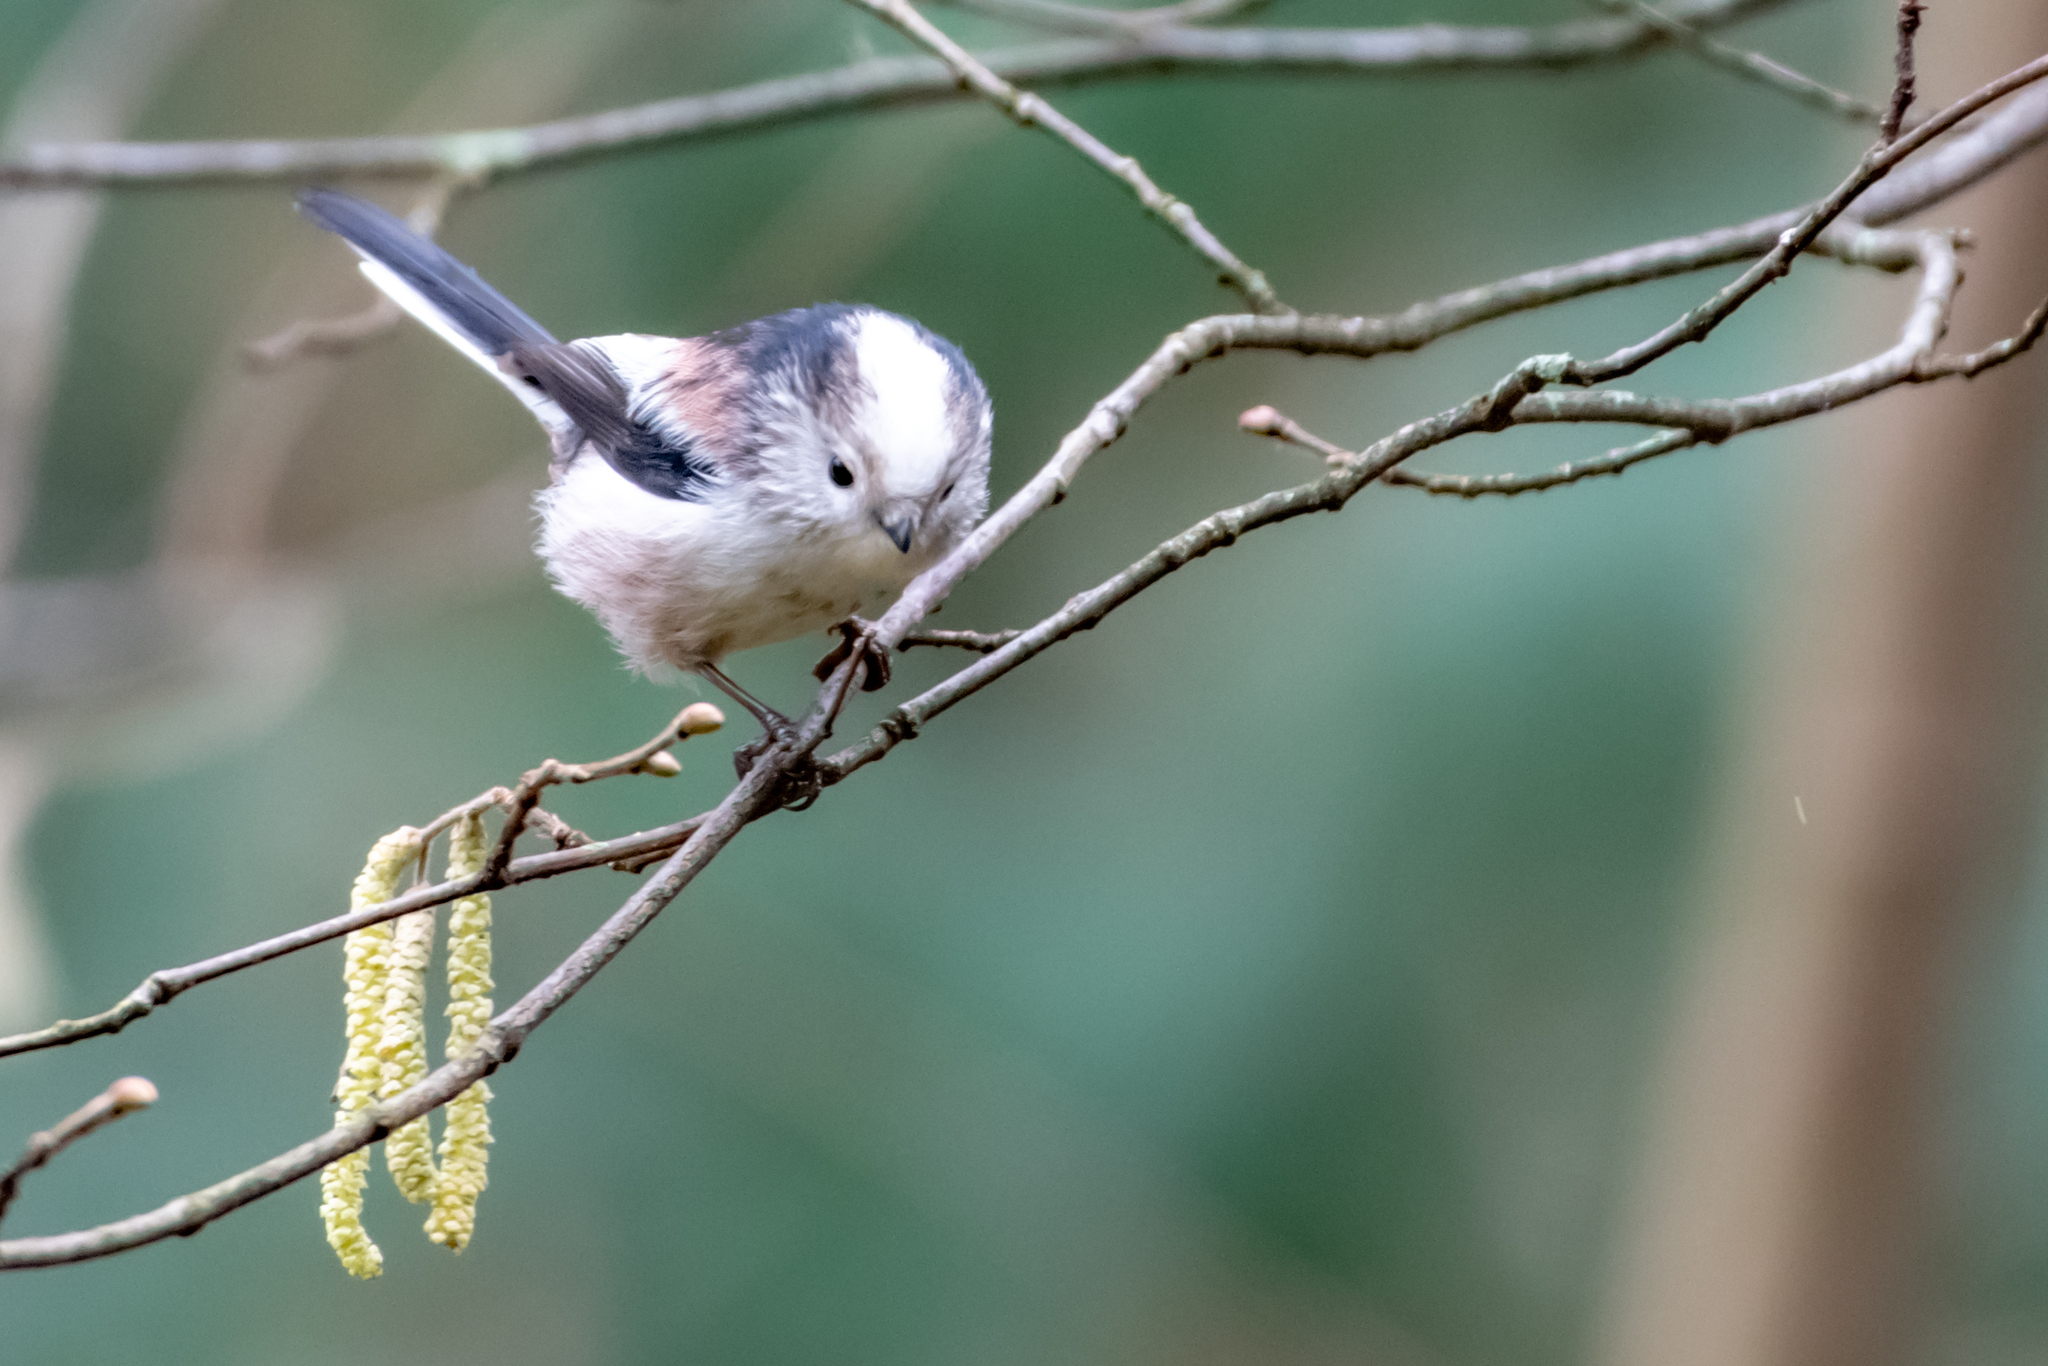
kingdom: Animalia
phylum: Chordata
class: Aves
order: Passeriformes
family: Aegithalidae
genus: Aegithalos
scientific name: Aegithalos caudatus
